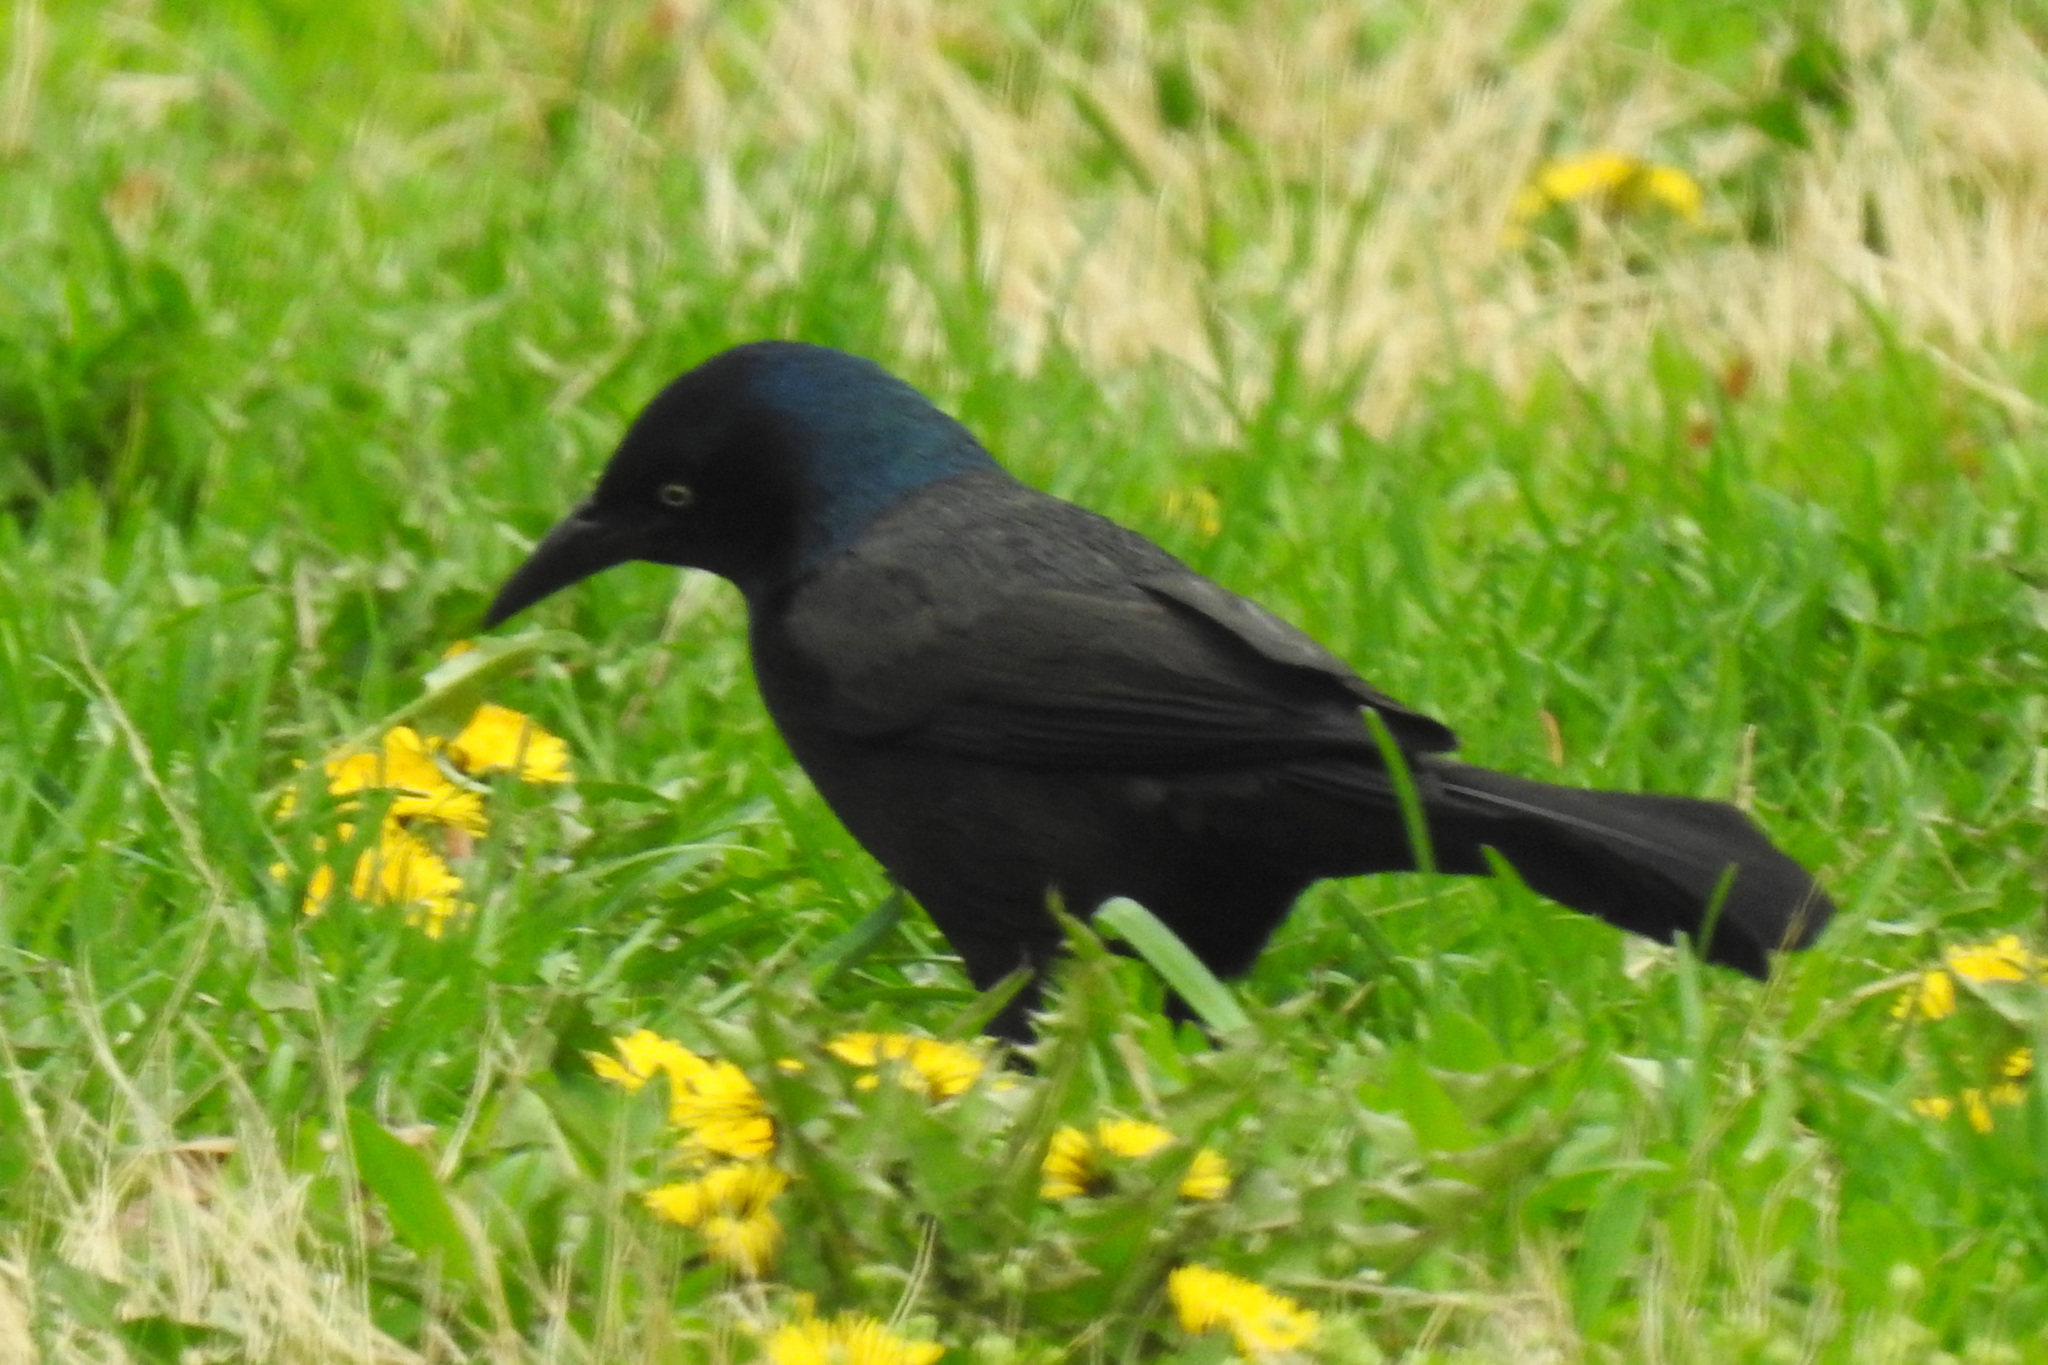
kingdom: Animalia
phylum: Chordata
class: Aves
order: Passeriformes
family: Icteridae
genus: Quiscalus
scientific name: Quiscalus quiscula
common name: Common grackle
